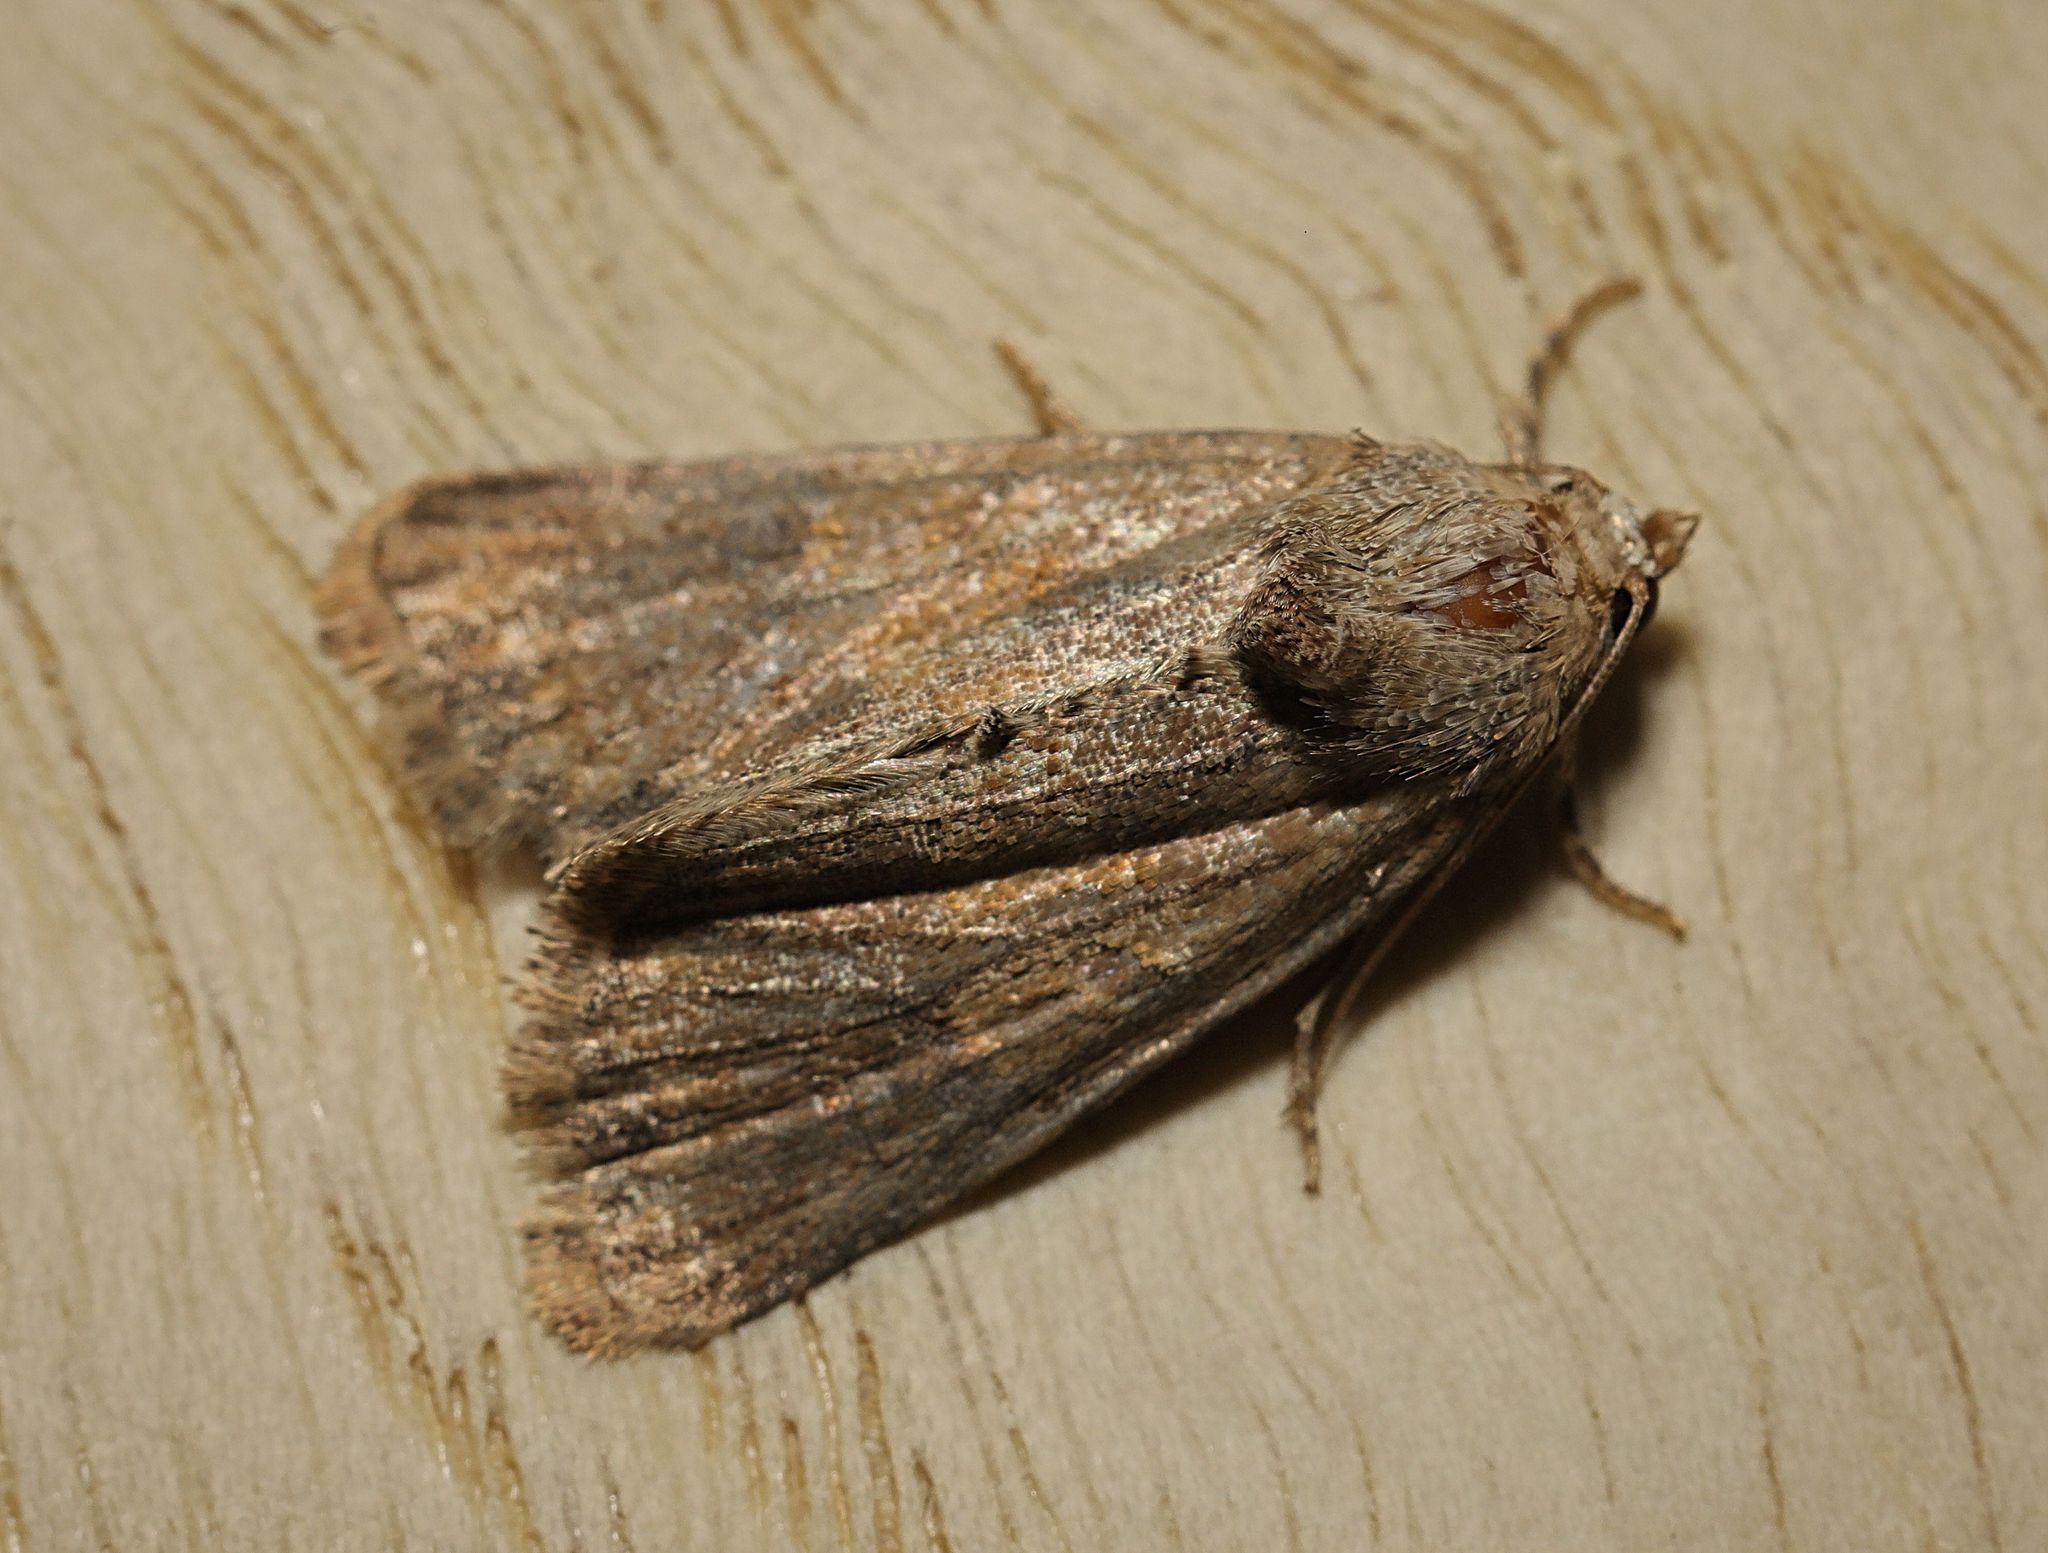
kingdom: Animalia
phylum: Arthropoda
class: Insecta
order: Lepidoptera
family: Noctuidae
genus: Mesoligia
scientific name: Mesoligia furuncula
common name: Cloaked minor
